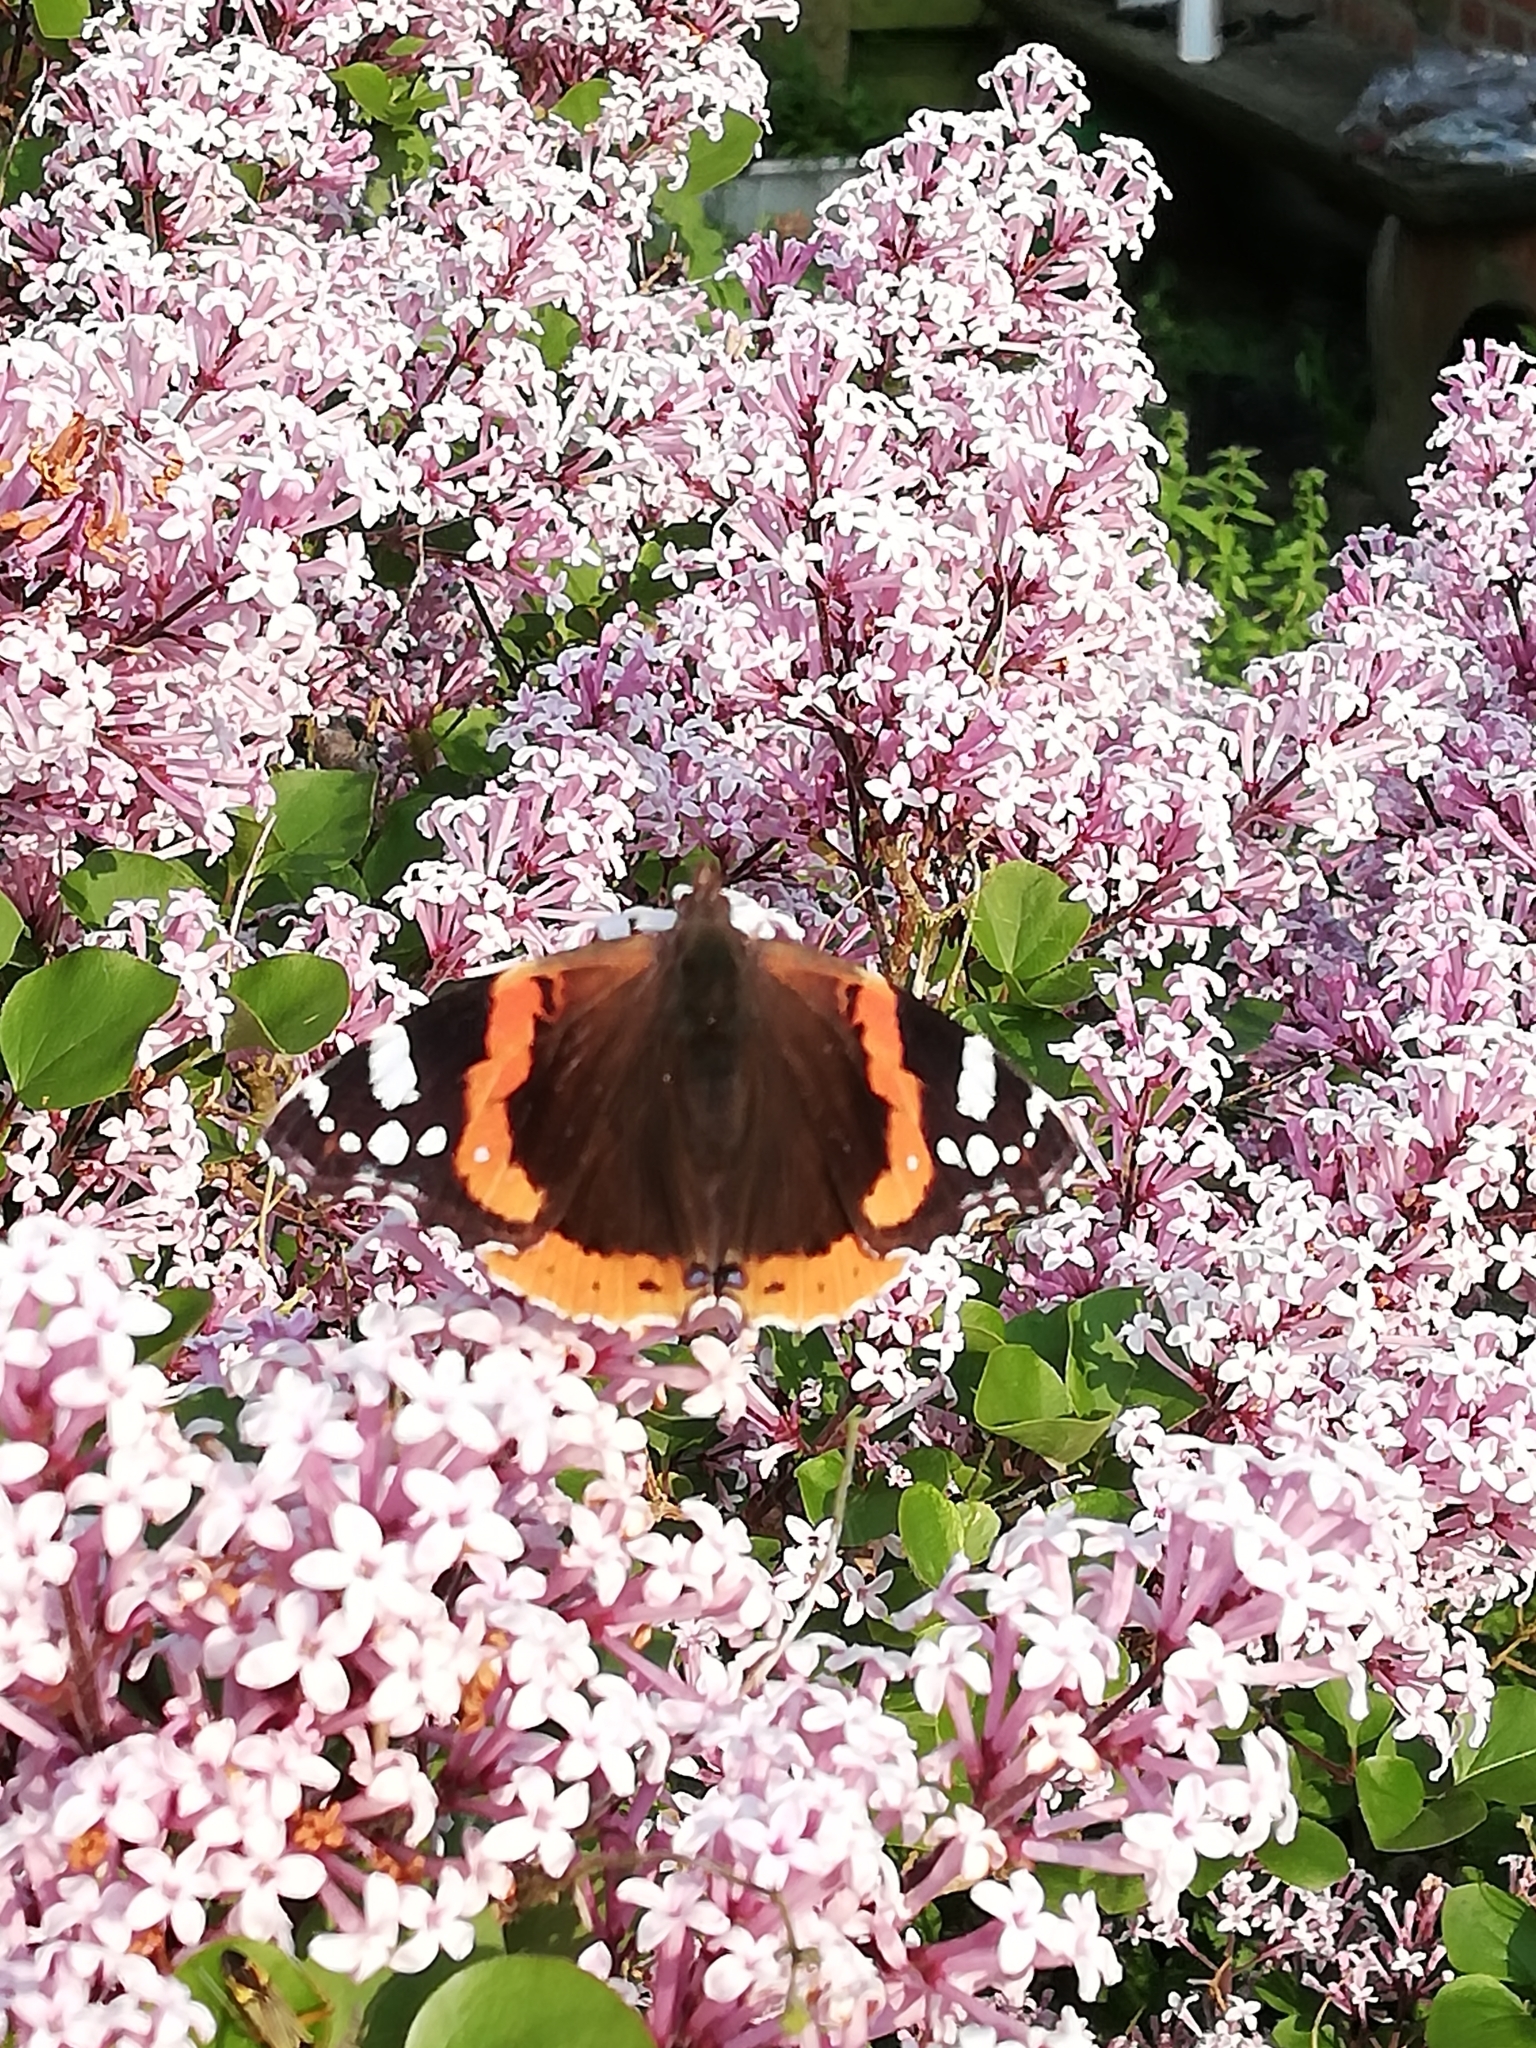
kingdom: Animalia
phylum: Arthropoda
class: Insecta
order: Lepidoptera
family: Nymphalidae
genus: Vanessa
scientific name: Vanessa atalanta
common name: Red admiral
